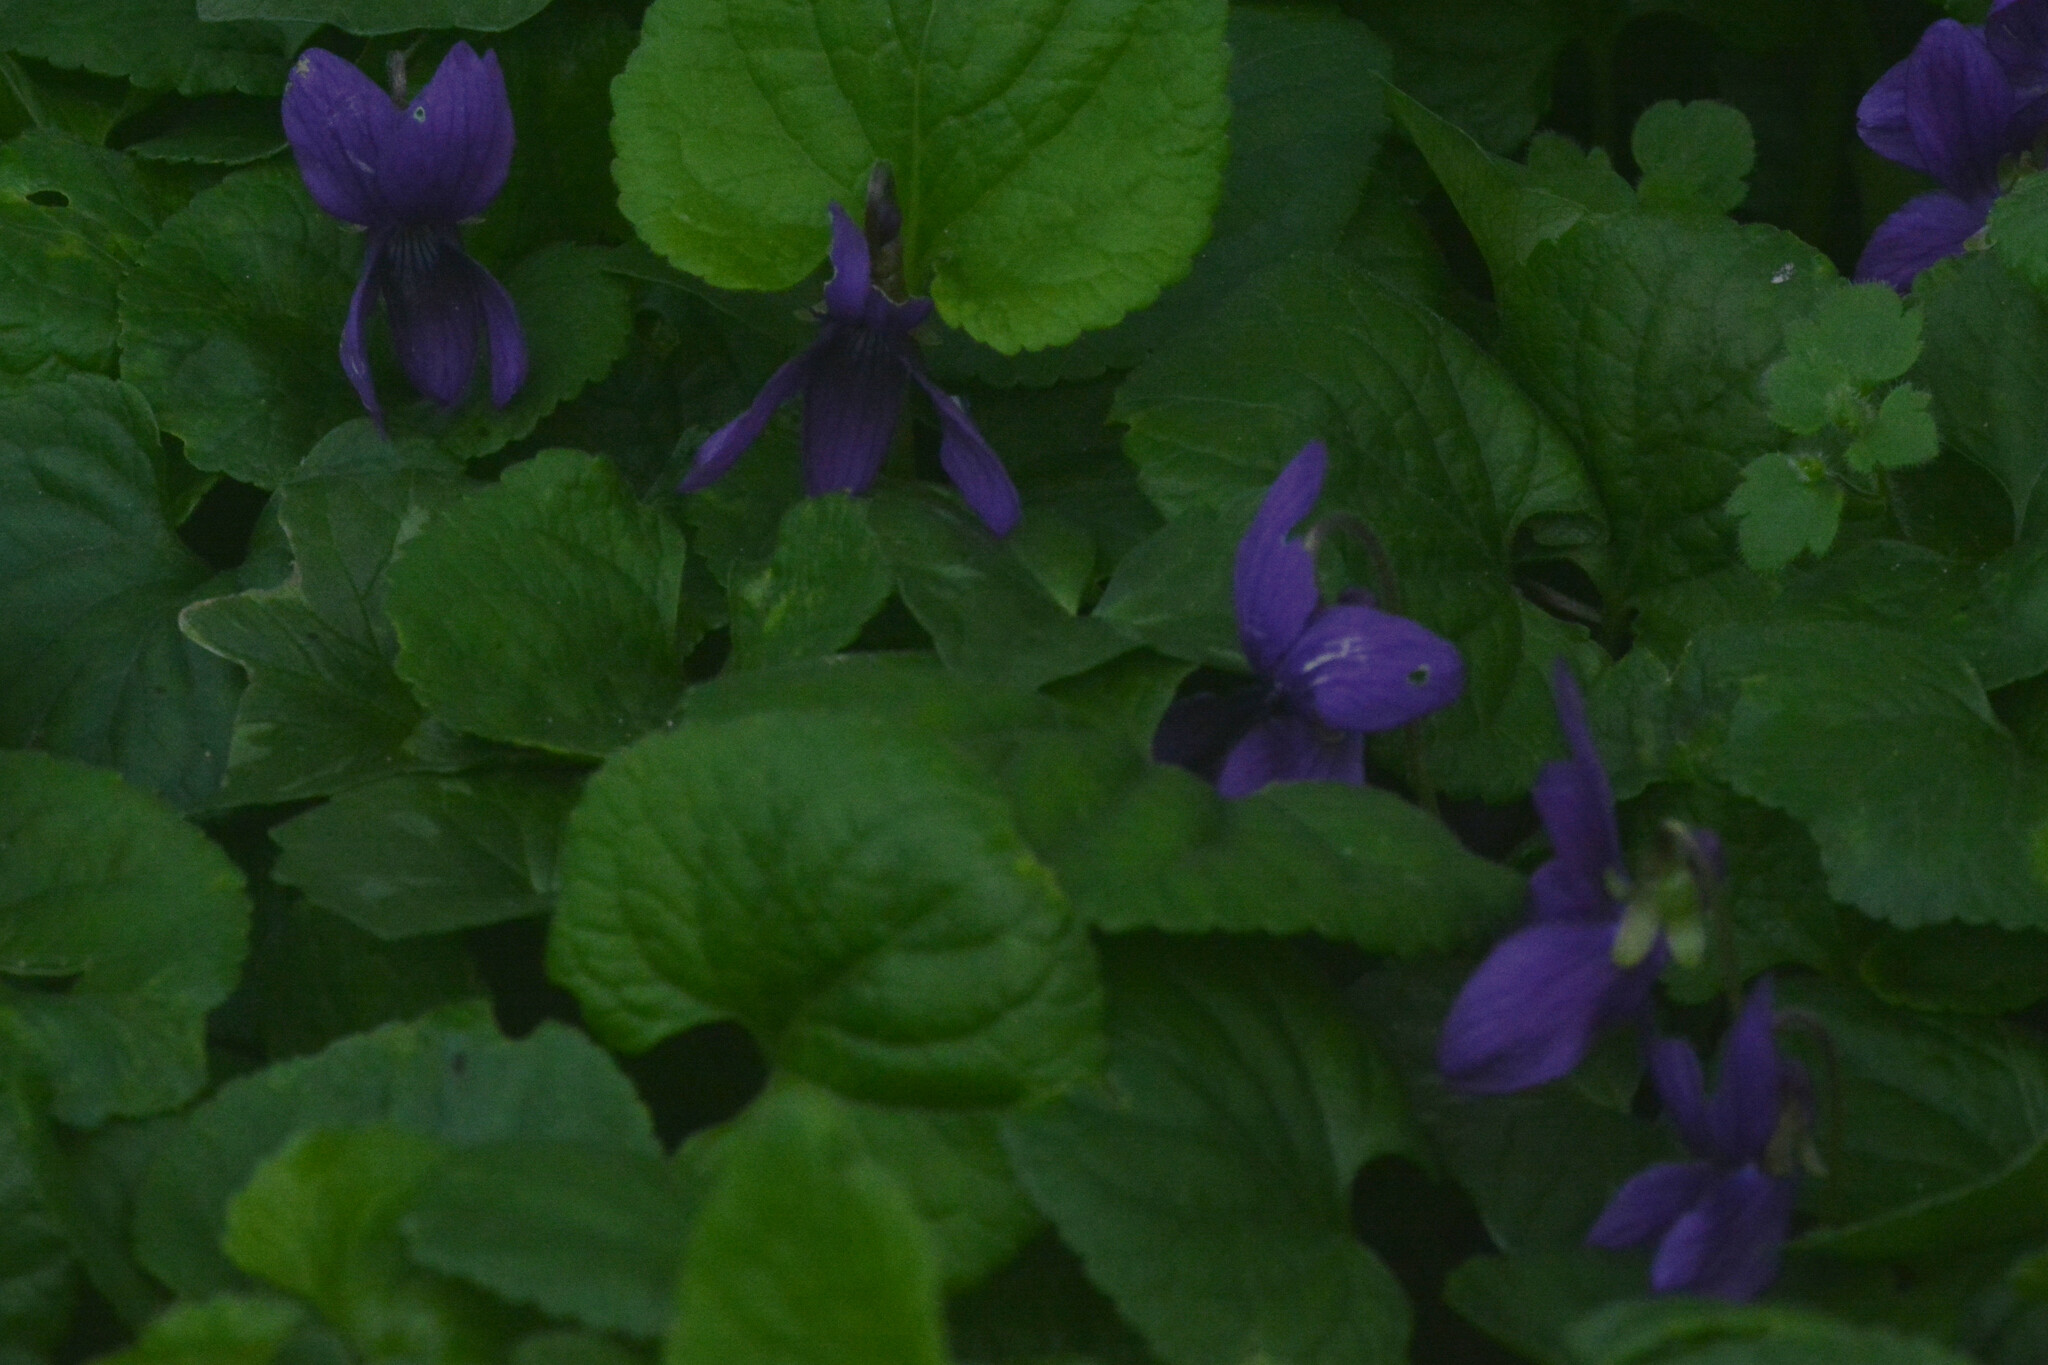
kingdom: Plantae
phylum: Tracheophyta
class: Magnoliopsida
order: Malpighiales
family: Violaceae
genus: Viola
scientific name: Viola odorata
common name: Sweet violet
